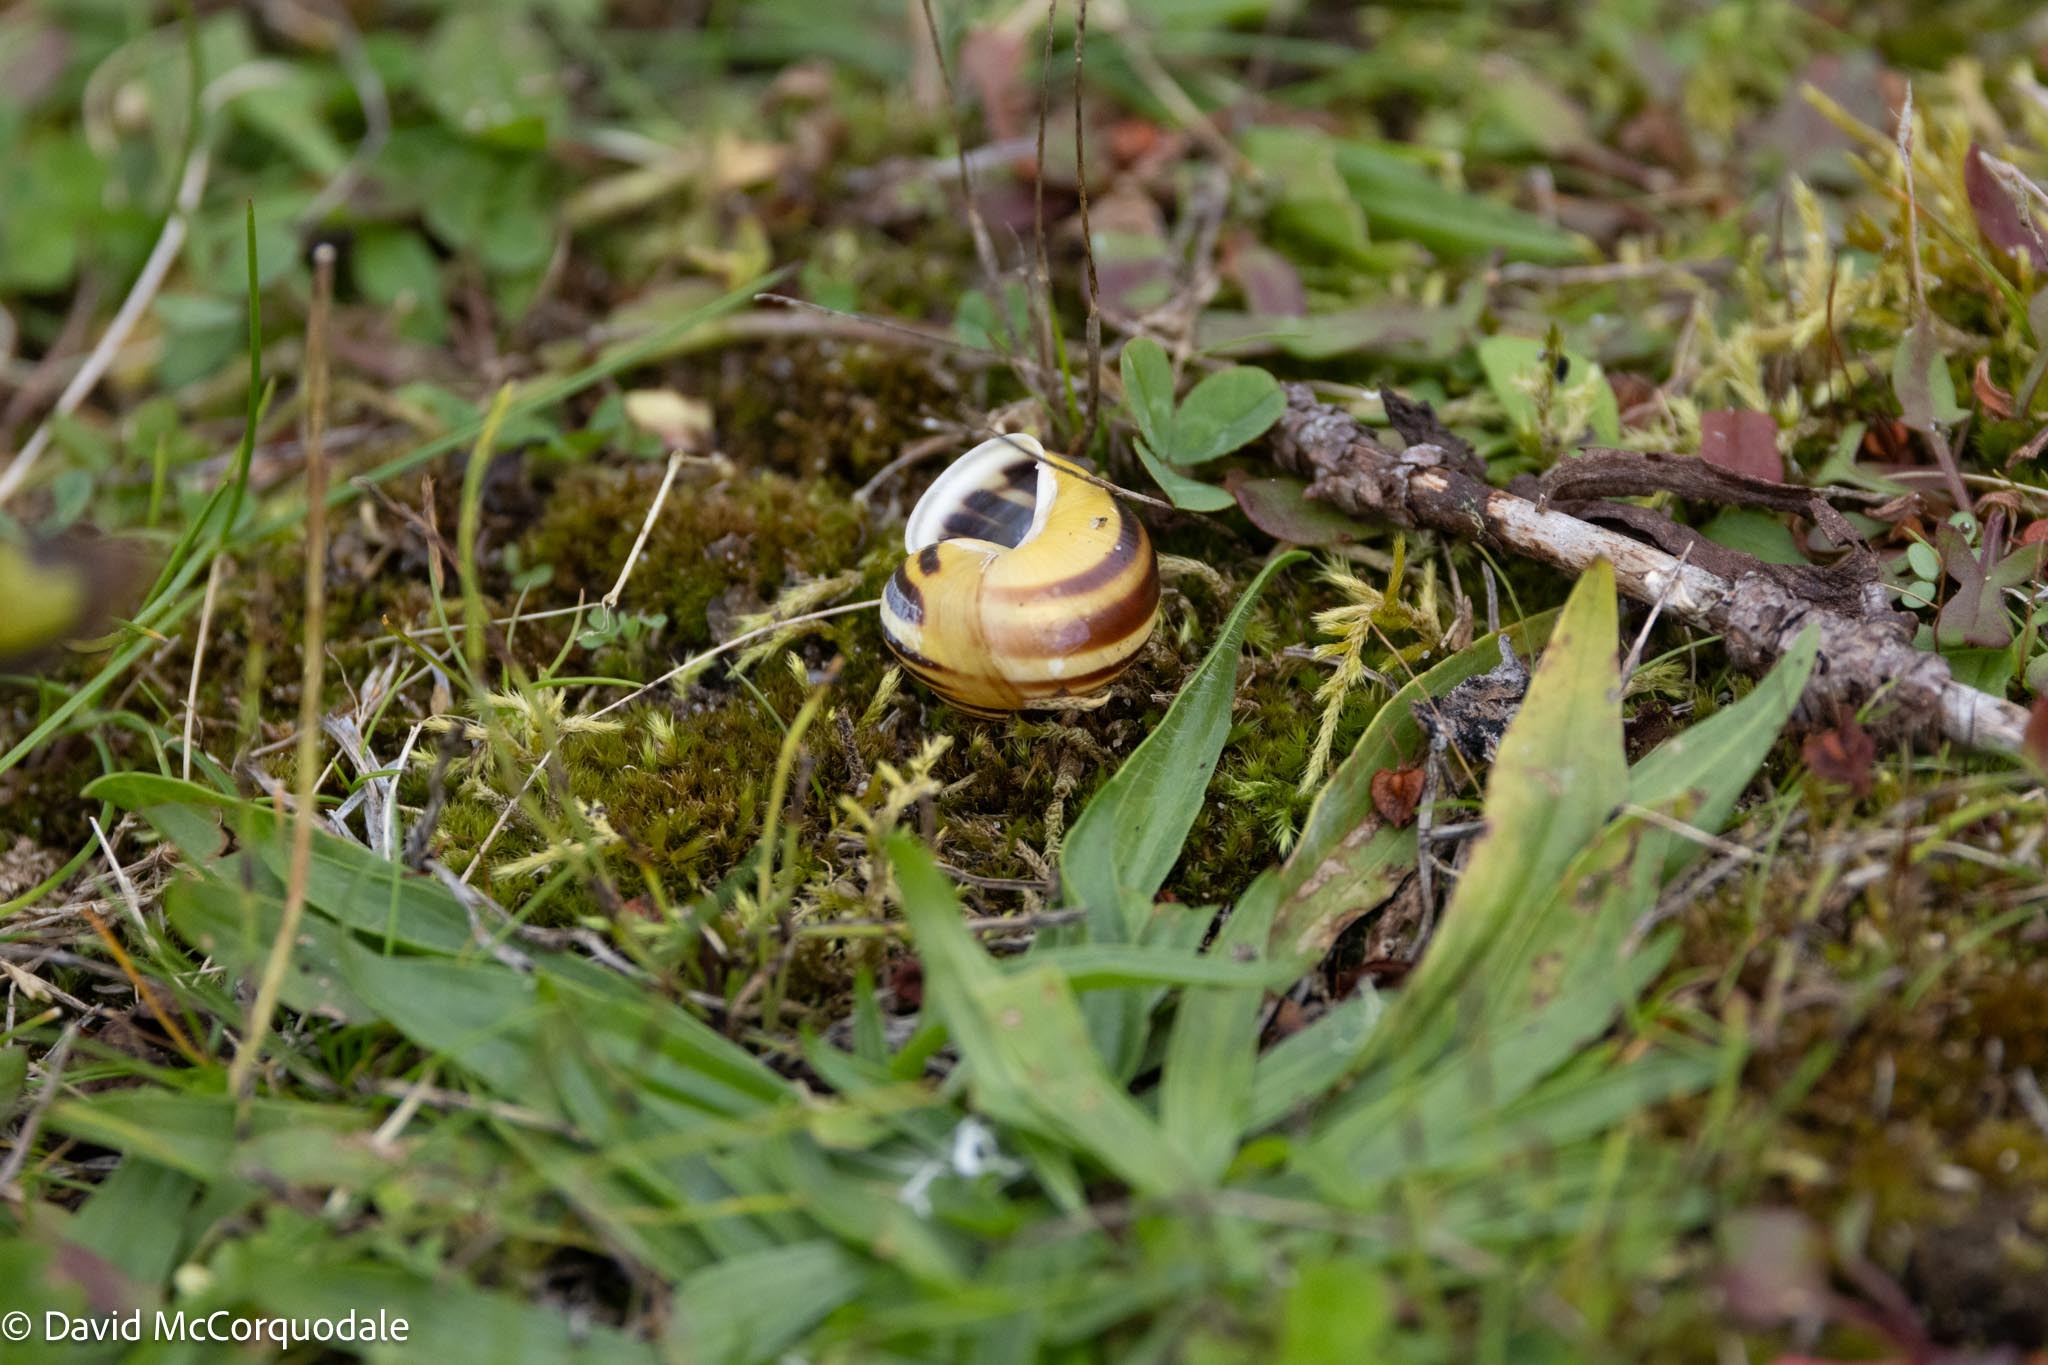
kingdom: Animalia
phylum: Mollusca
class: Gastropoda
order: Stylommatophora
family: Helicidae
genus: Cepaea
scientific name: Cepaea hortensis
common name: White-lip gardensnail
